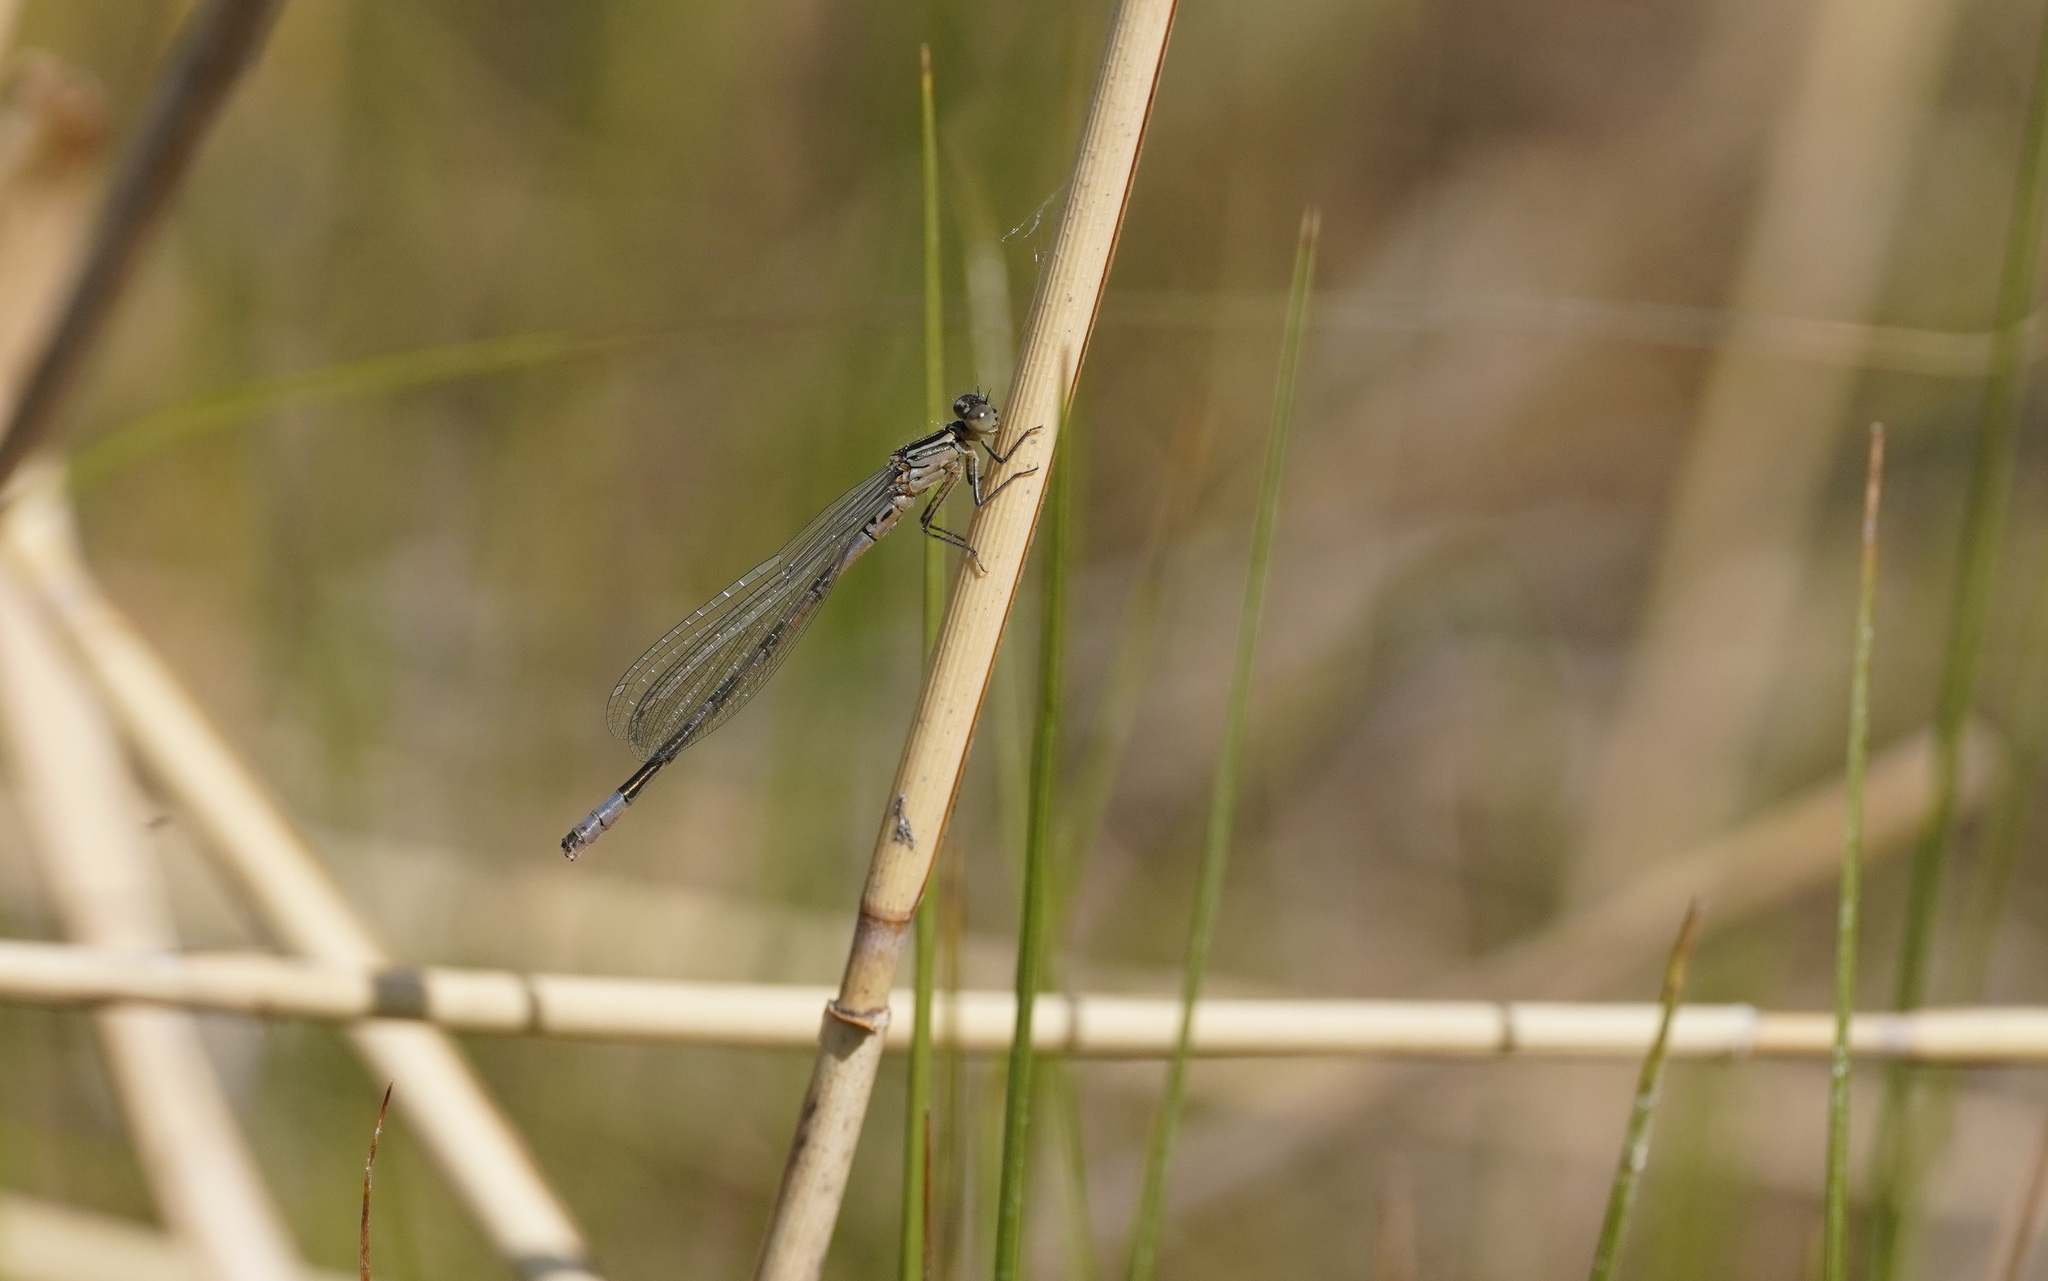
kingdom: Animalia
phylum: Arthropoda
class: Insecta
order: Odonata
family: Coenagrionidae
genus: Coenagrion
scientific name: Coenagrion hastulatum
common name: Spearhead bluet
